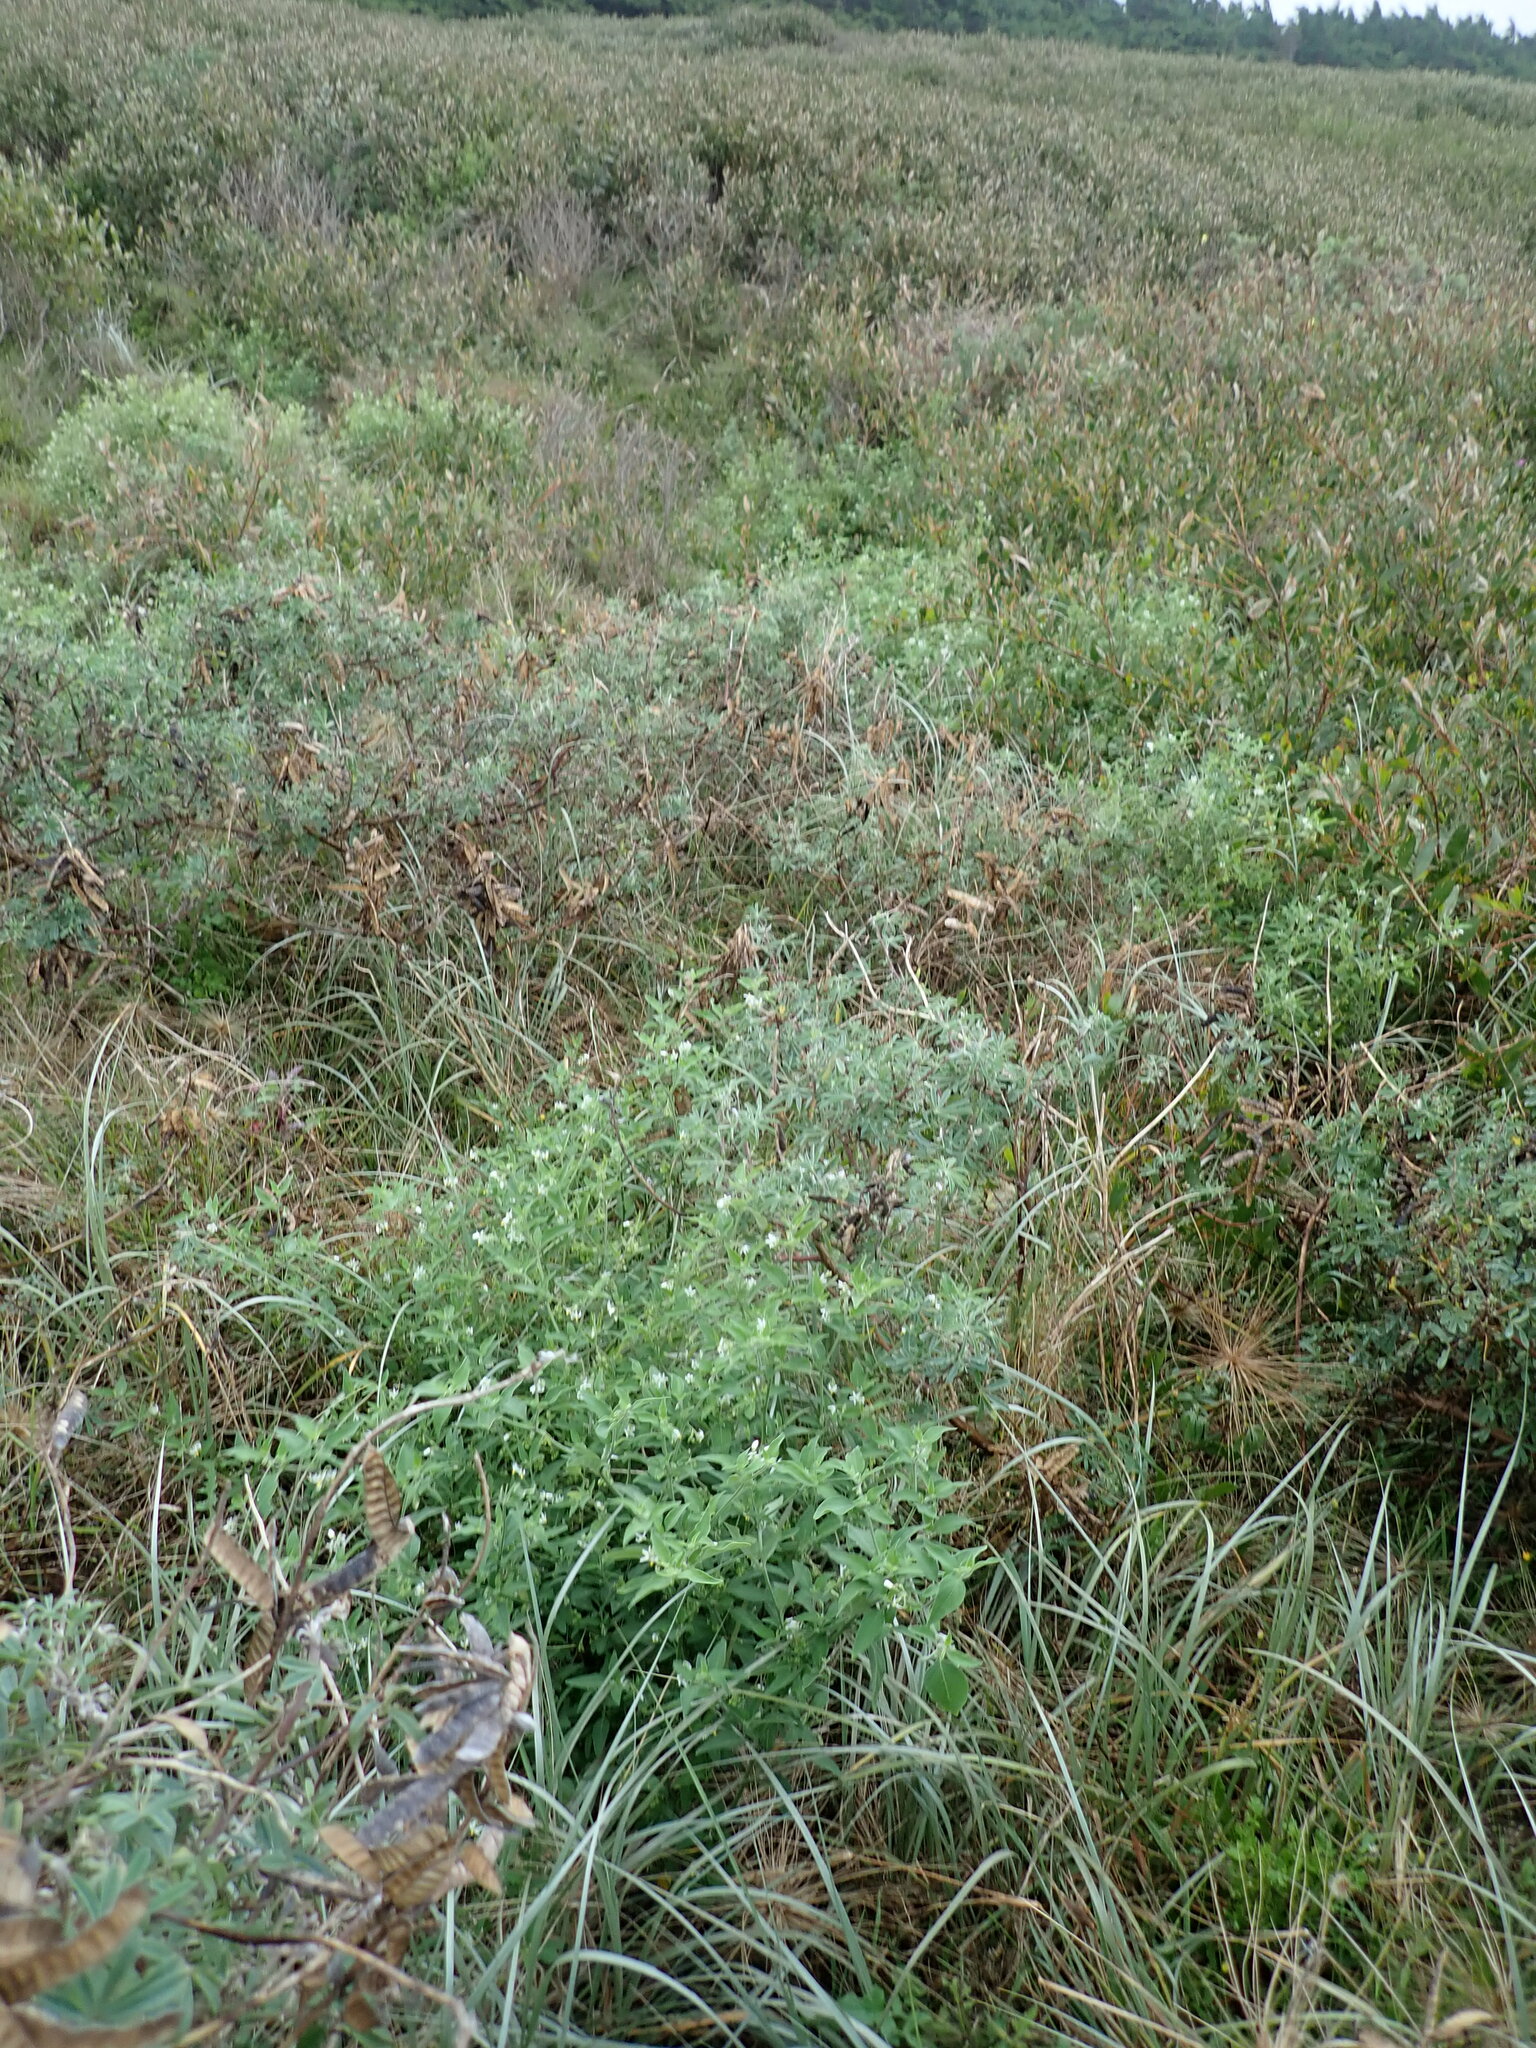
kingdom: Plantae
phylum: Tracheophyta
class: Magnoliopsida
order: Solanales
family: Solanaceae
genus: Solanum
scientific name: Solanum chenopodioides
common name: Tall nightshade
